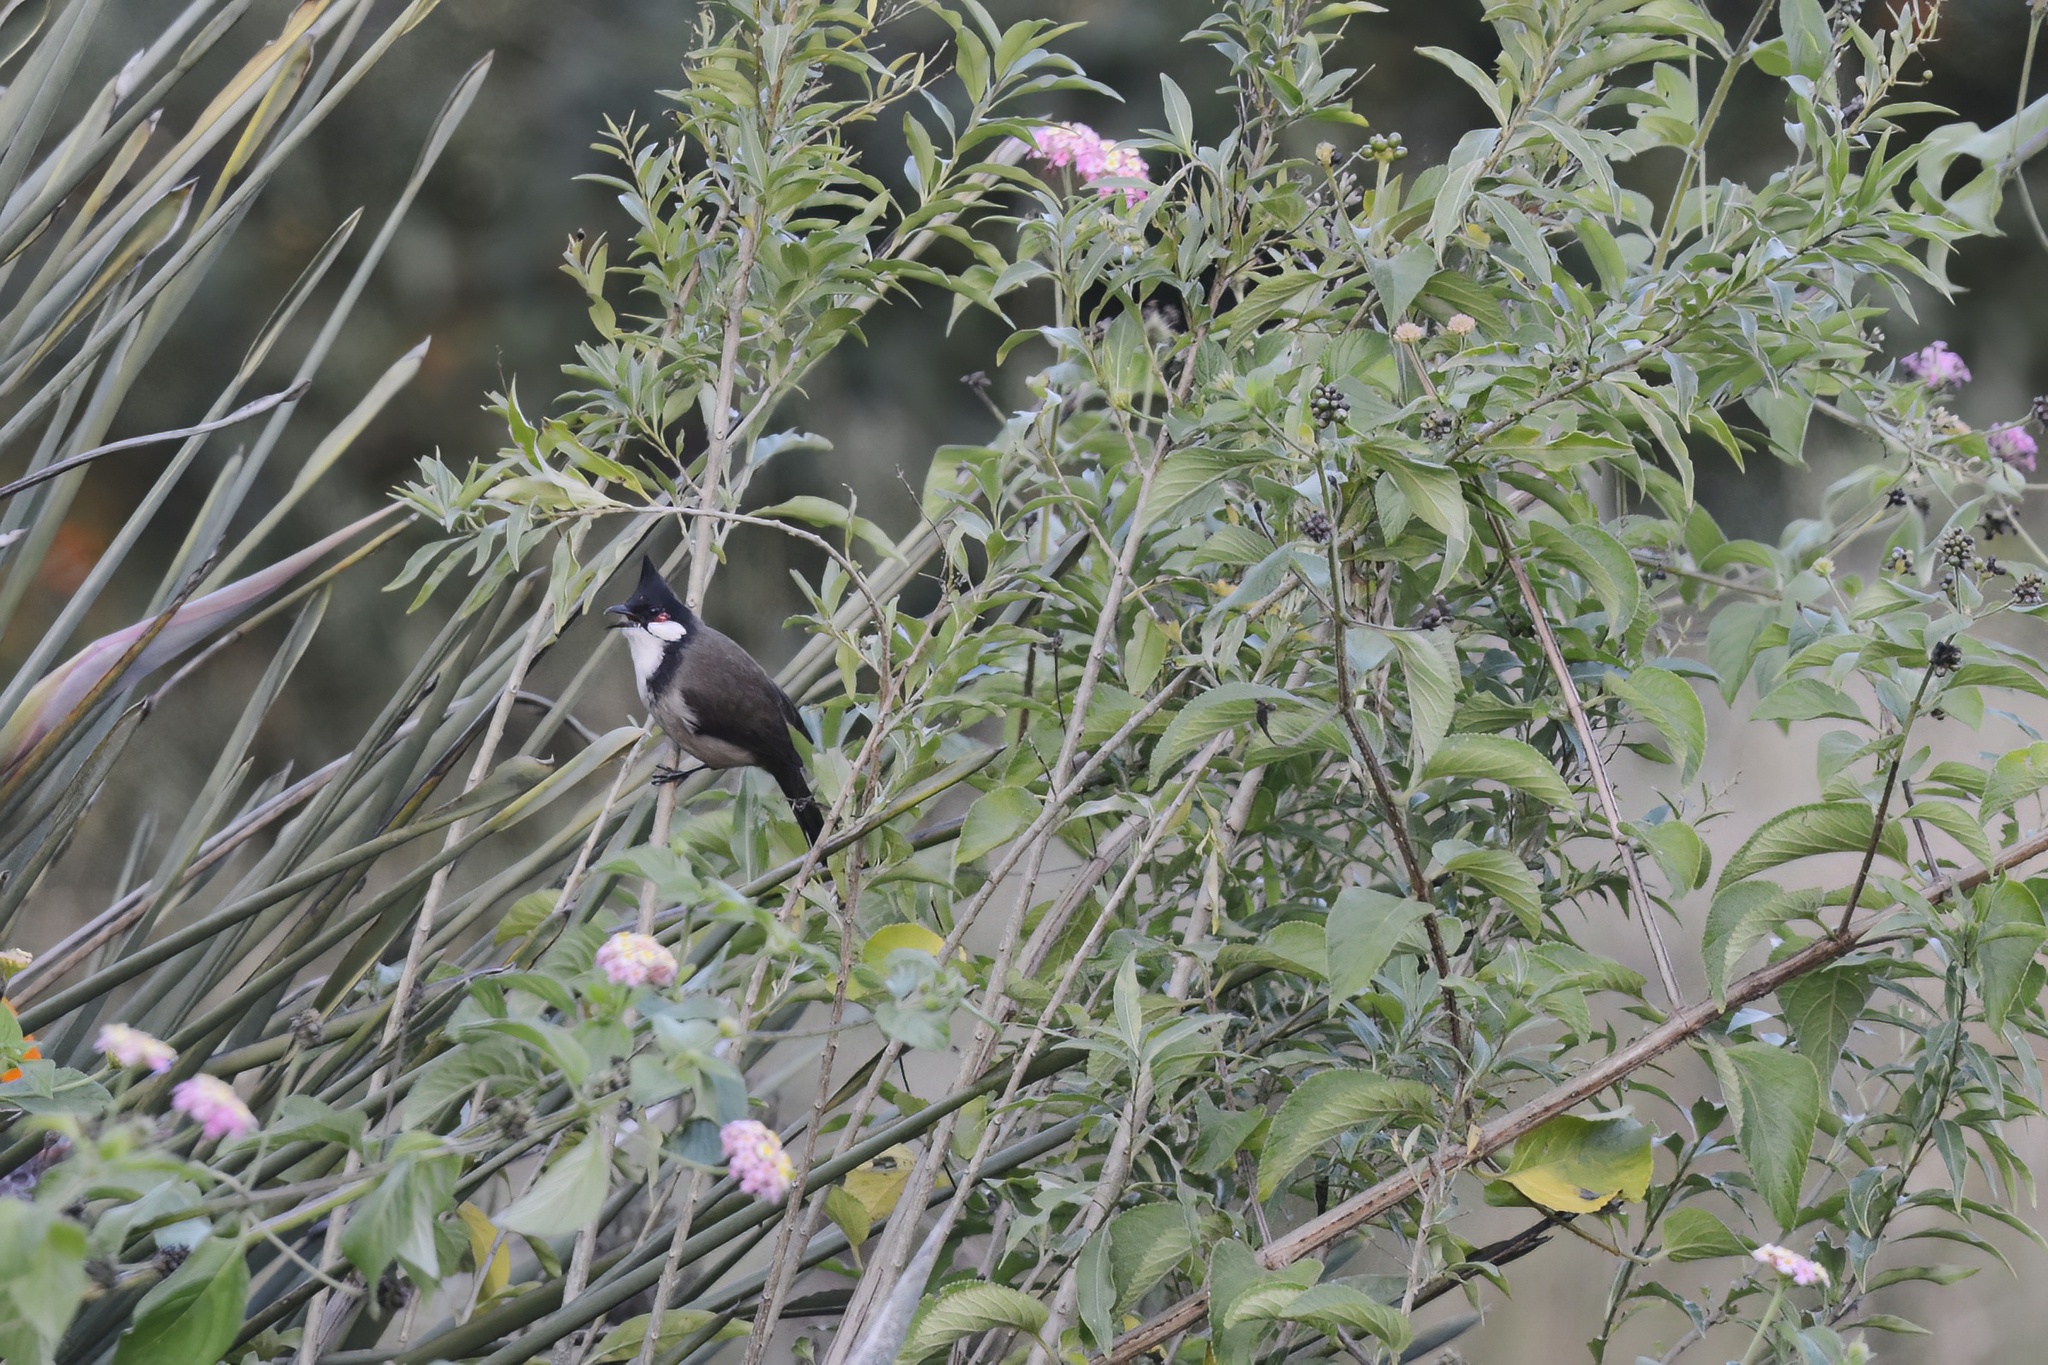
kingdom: Animalia
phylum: Chordata
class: Aves
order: Passeriformes
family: Pycnonotidae
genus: Pycnonotus
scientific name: Pycnonotus jocosus
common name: Red-whiskered bulbul
